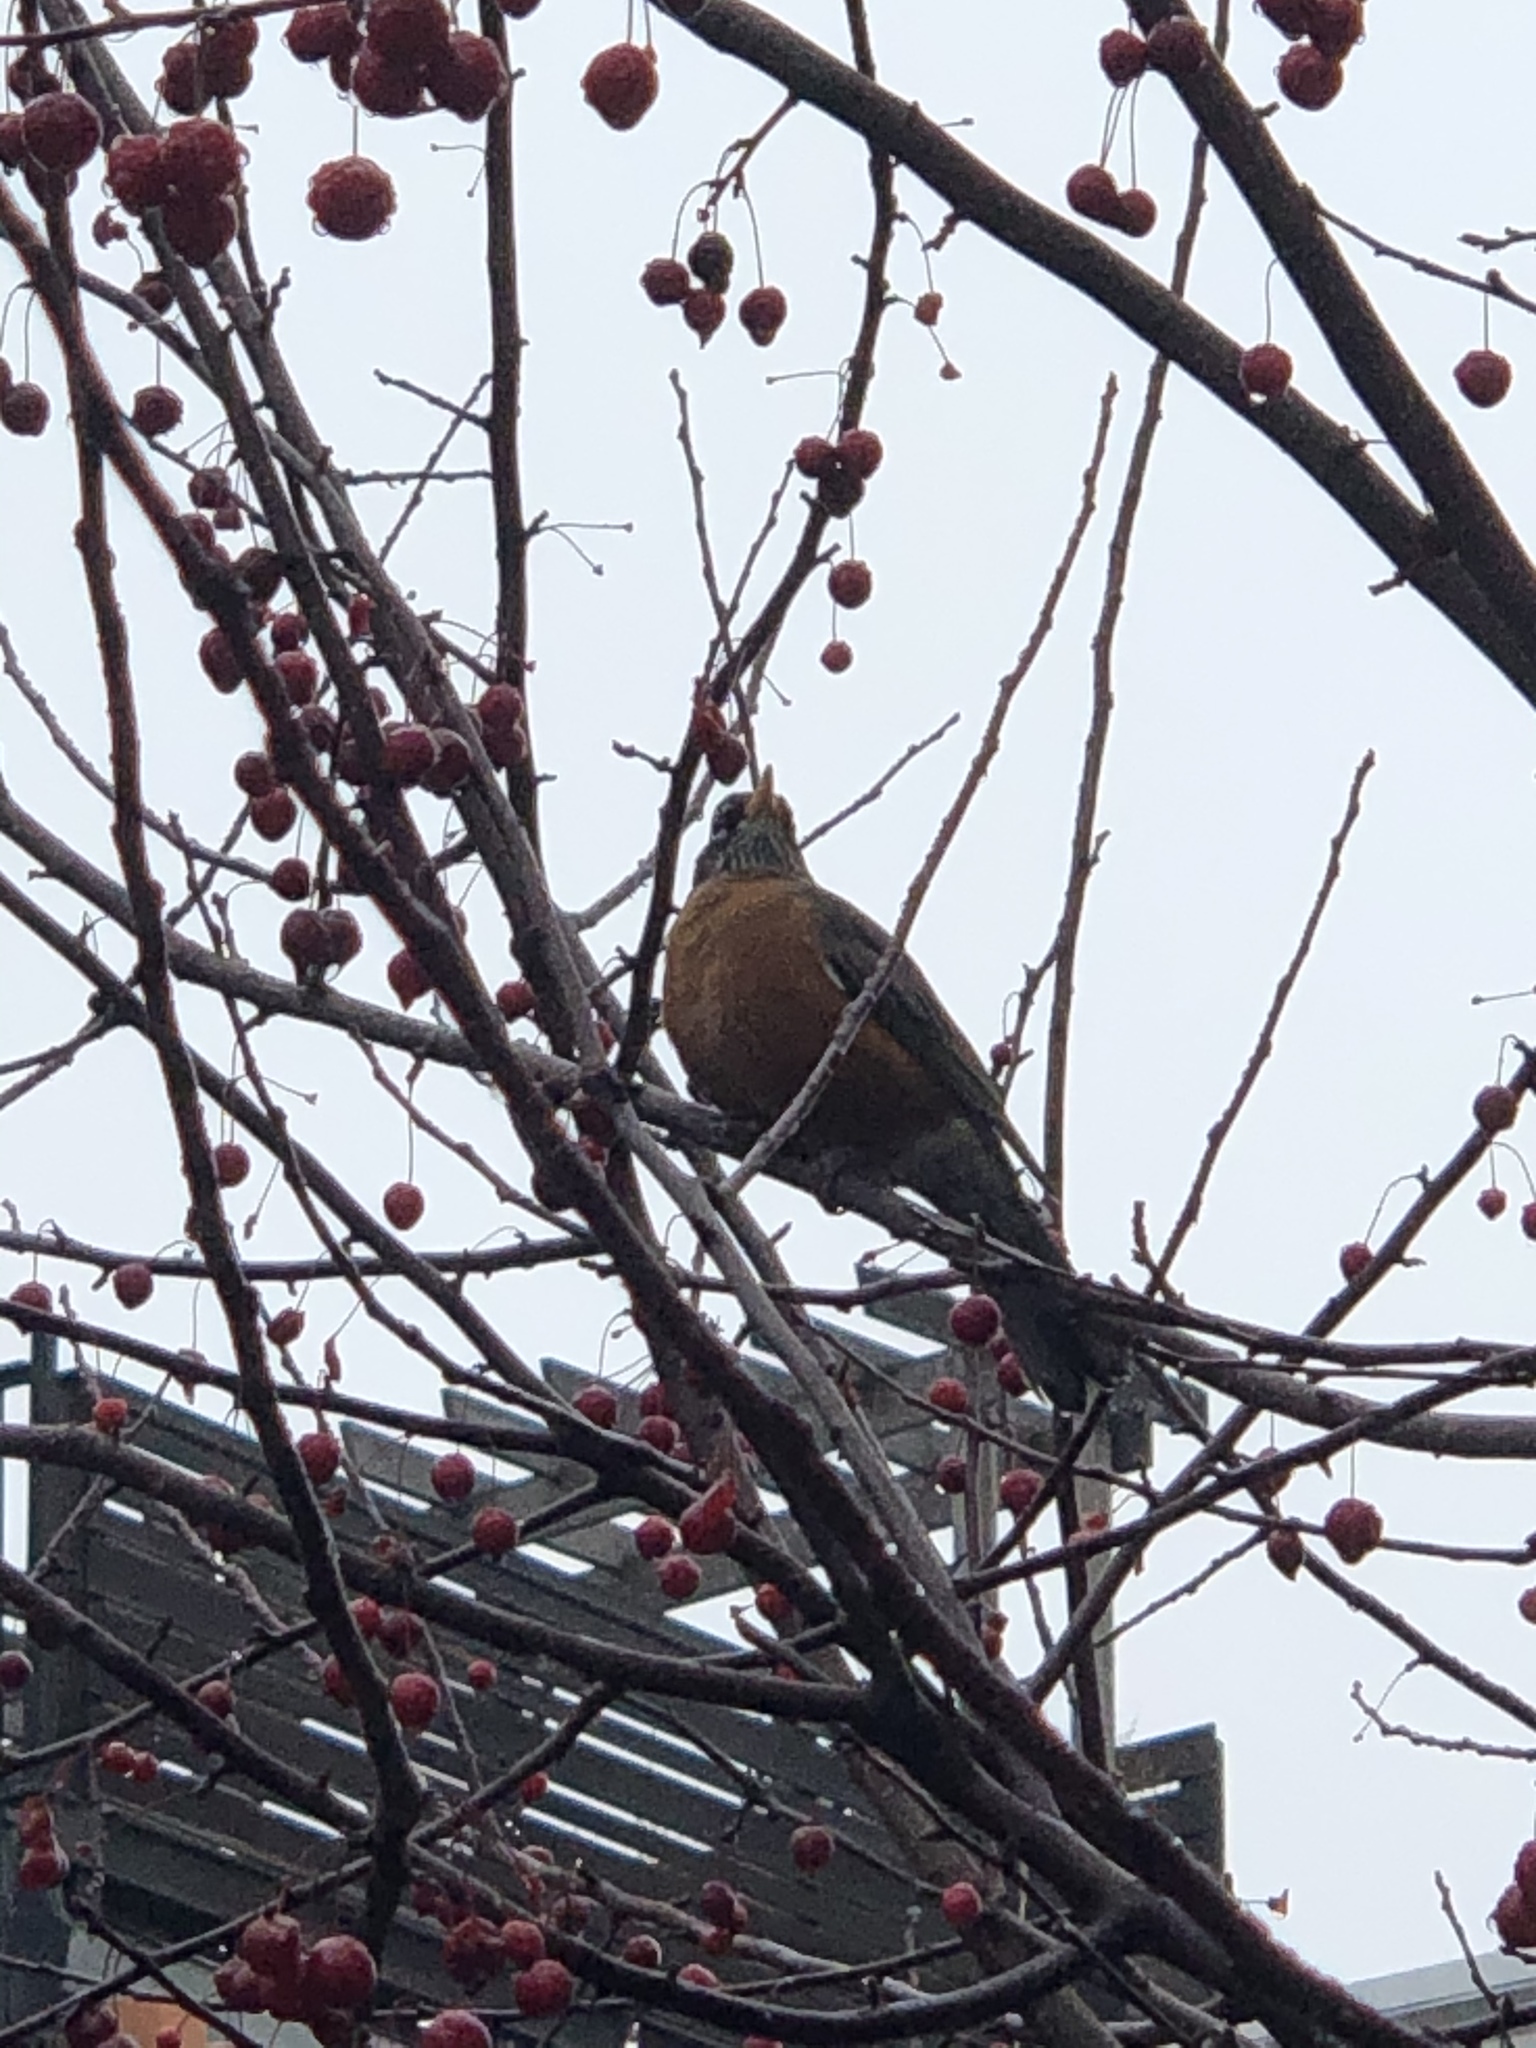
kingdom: Animalia
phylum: Chordata
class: Aves
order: Passeriformes
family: Turdidae
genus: Turdus
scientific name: Turdus migratorius
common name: American robin
